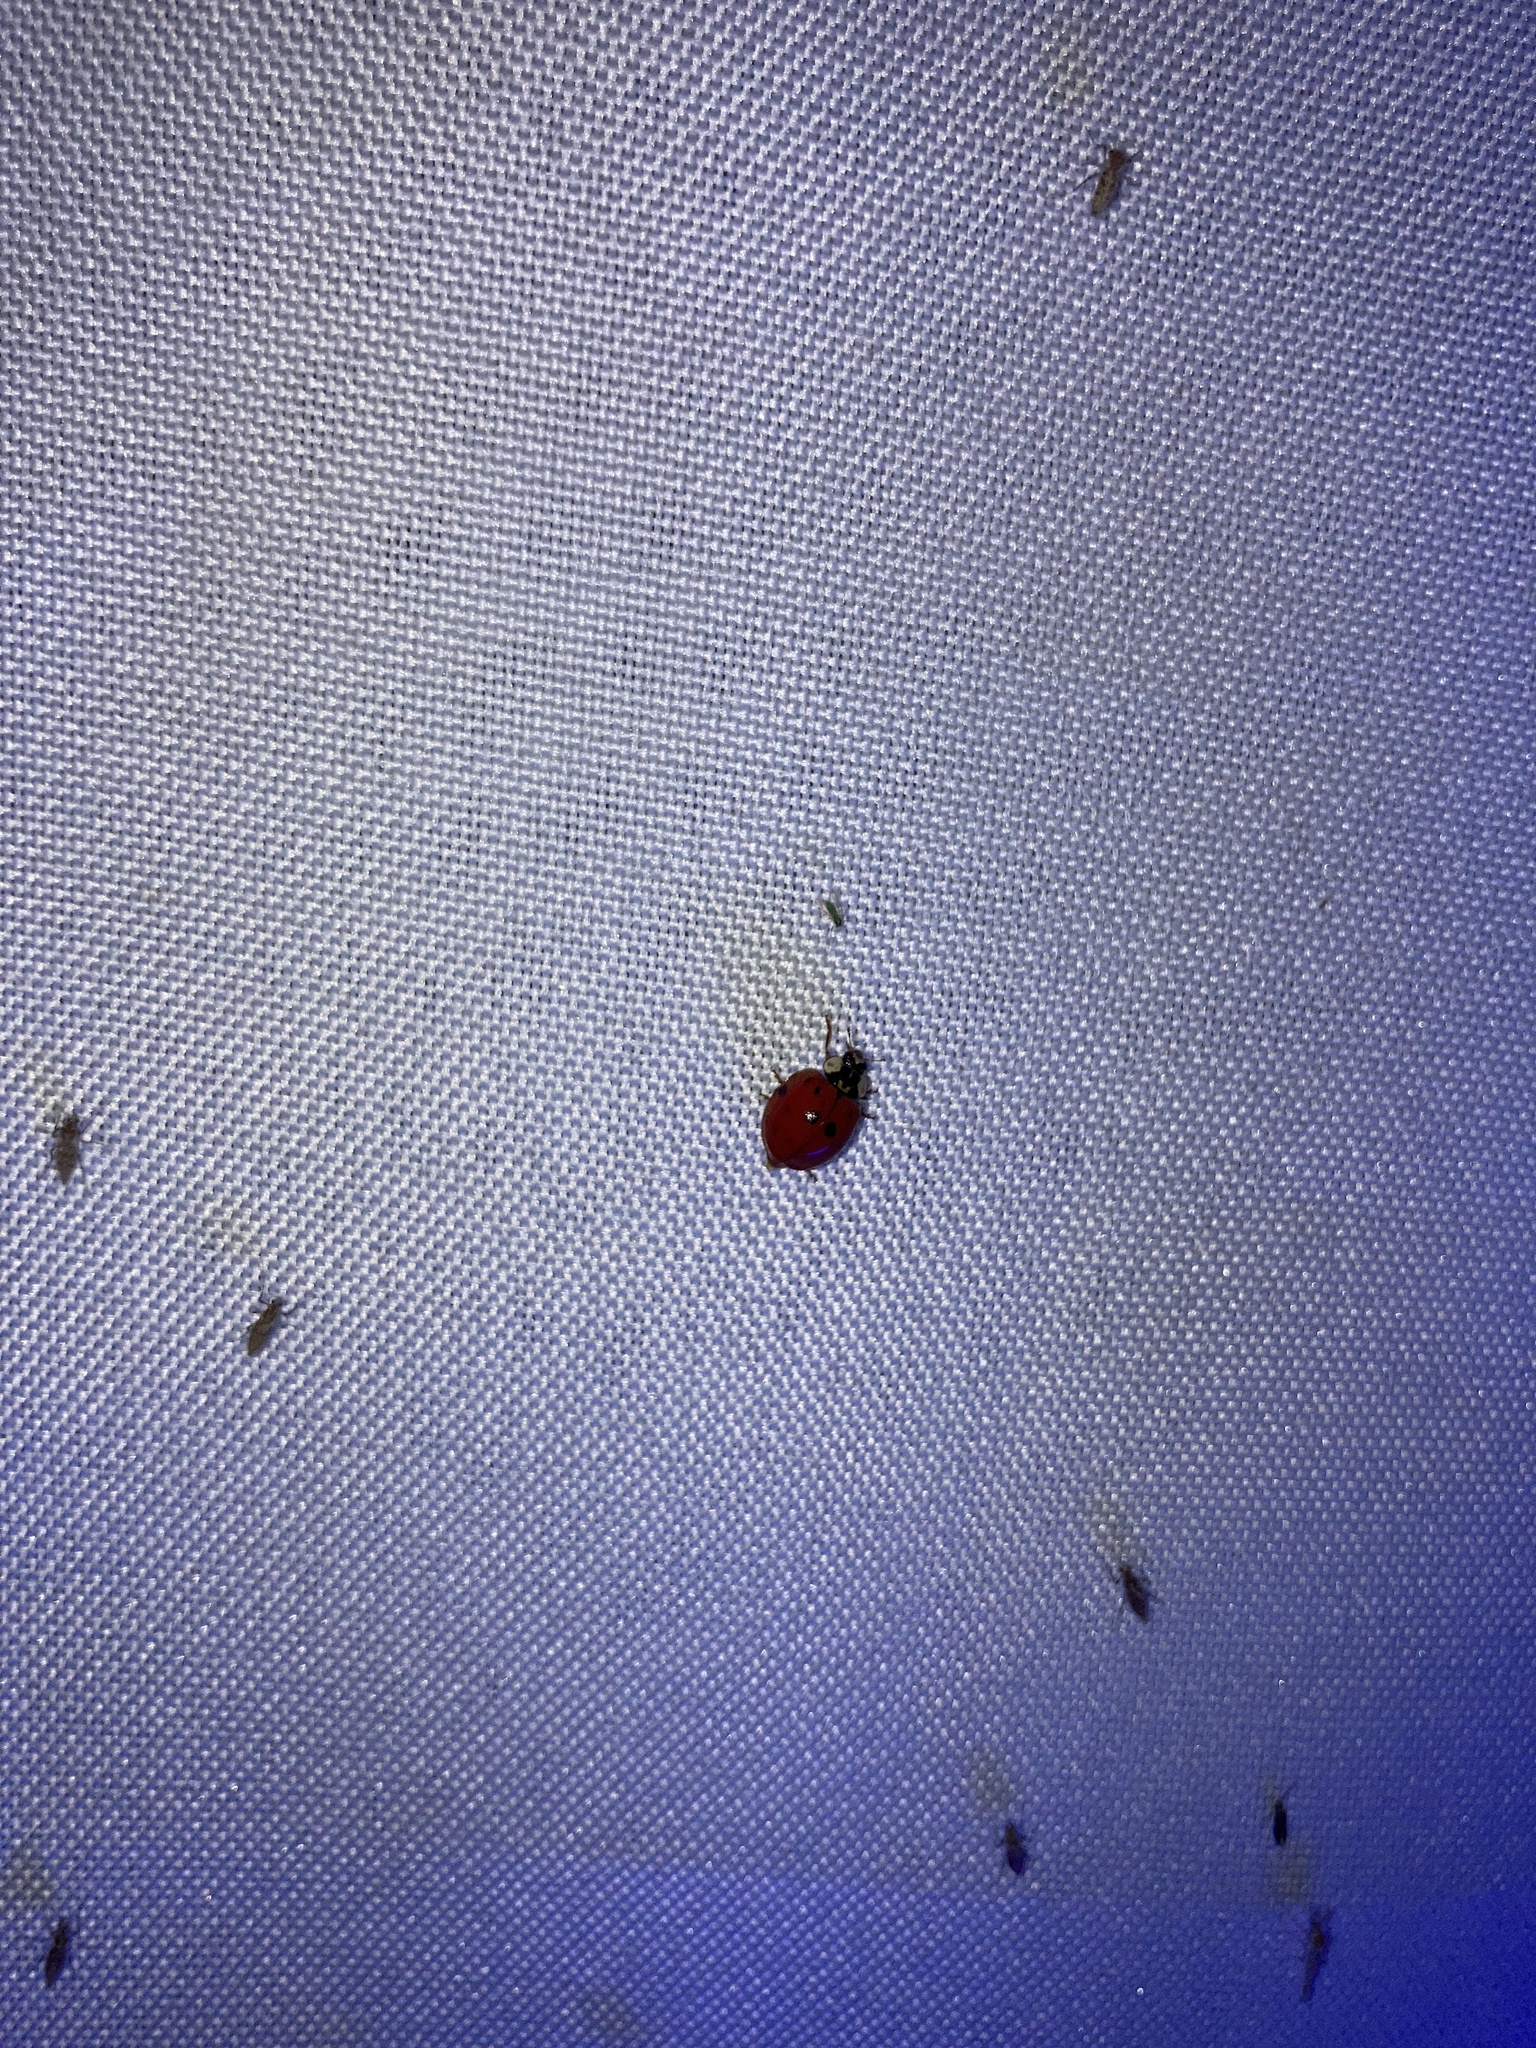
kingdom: Animalia
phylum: Arthropoda
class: Insecta
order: Coleoptera
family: Coccinellidae
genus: Harmonia
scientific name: Harmonia axyridis
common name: Harlequin ladybird
